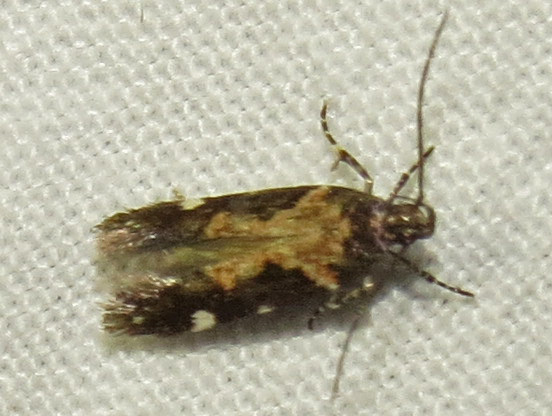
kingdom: Animalia
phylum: Arthropoda
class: Insecta
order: Lepidoptera
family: Gelechiidae
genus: Stegasta
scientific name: Stegasta bosqueella
